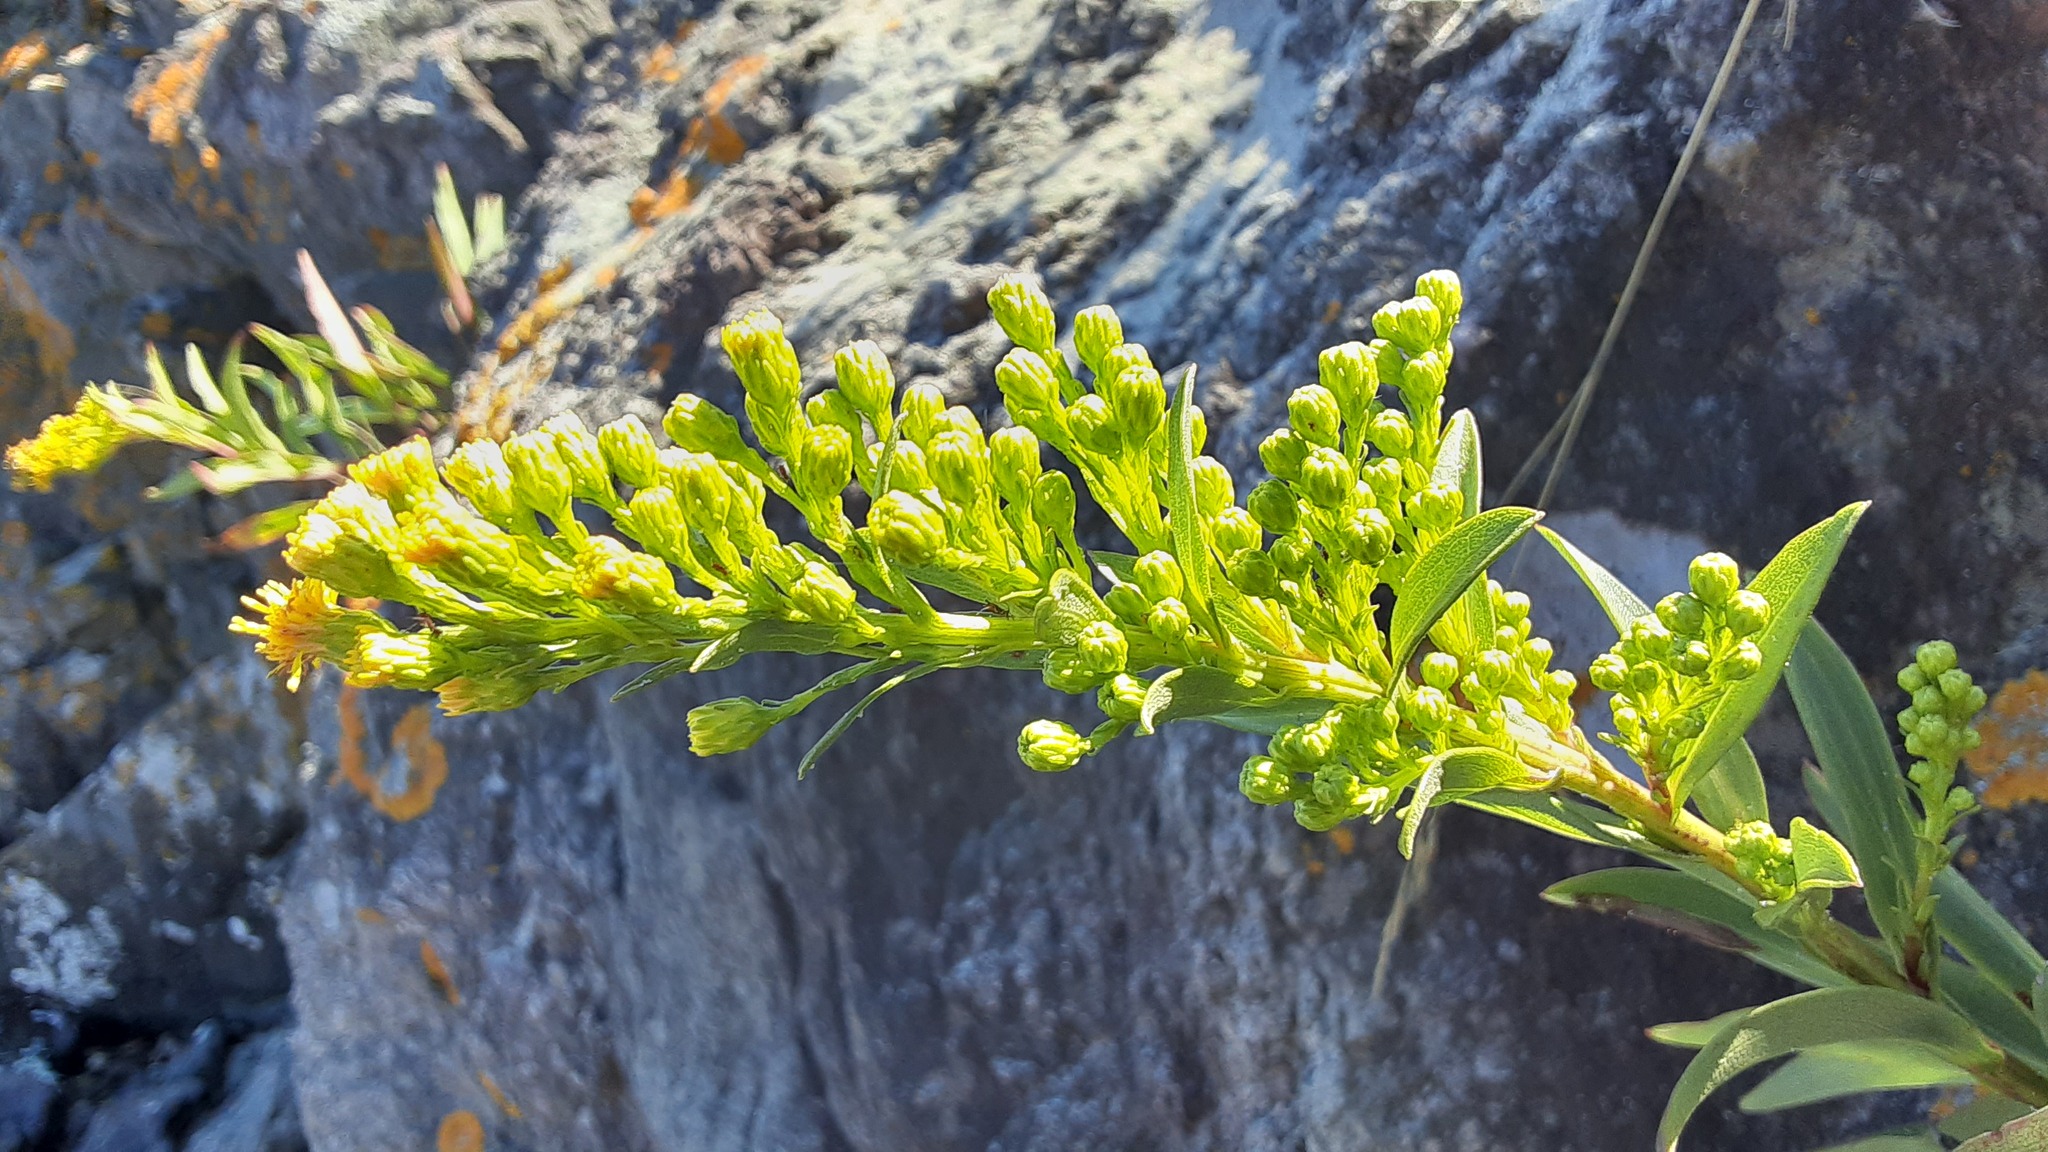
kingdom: Plantae
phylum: Tracheophyta
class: Magnoliopsida
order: Asterales
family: Asteraceae
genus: Solidago
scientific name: Solidago sempervirens
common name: Salt-marsh goldenrod
